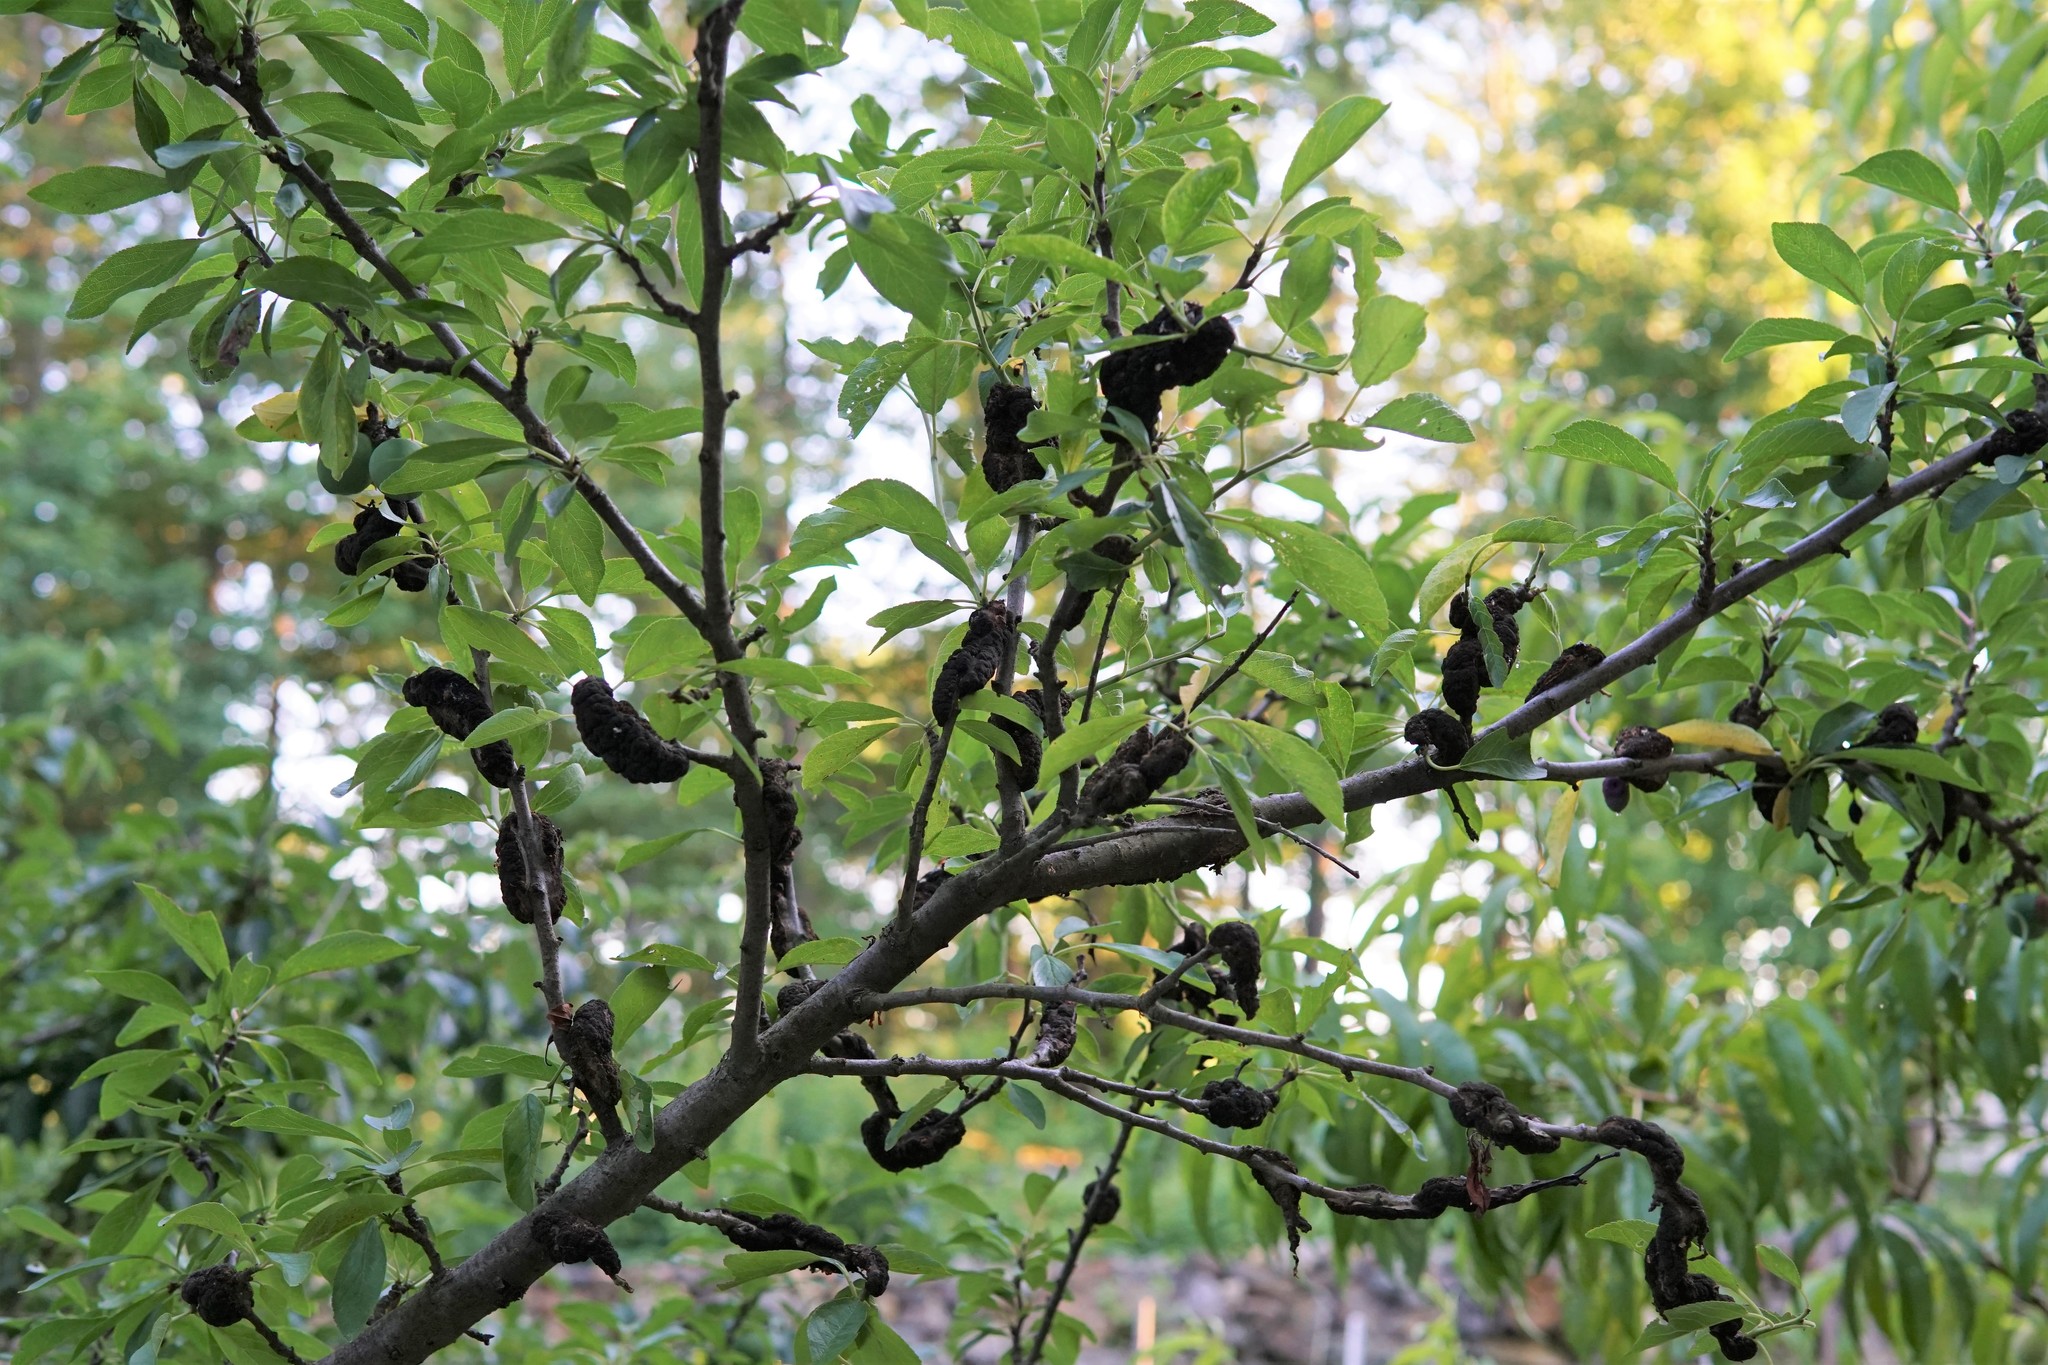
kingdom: Fungi
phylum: Ascomycota
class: Dothideomycetes
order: Venturiales
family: Venturiaceae
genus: Apiosporina
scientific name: Apiosporina morbosa
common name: Black knot
